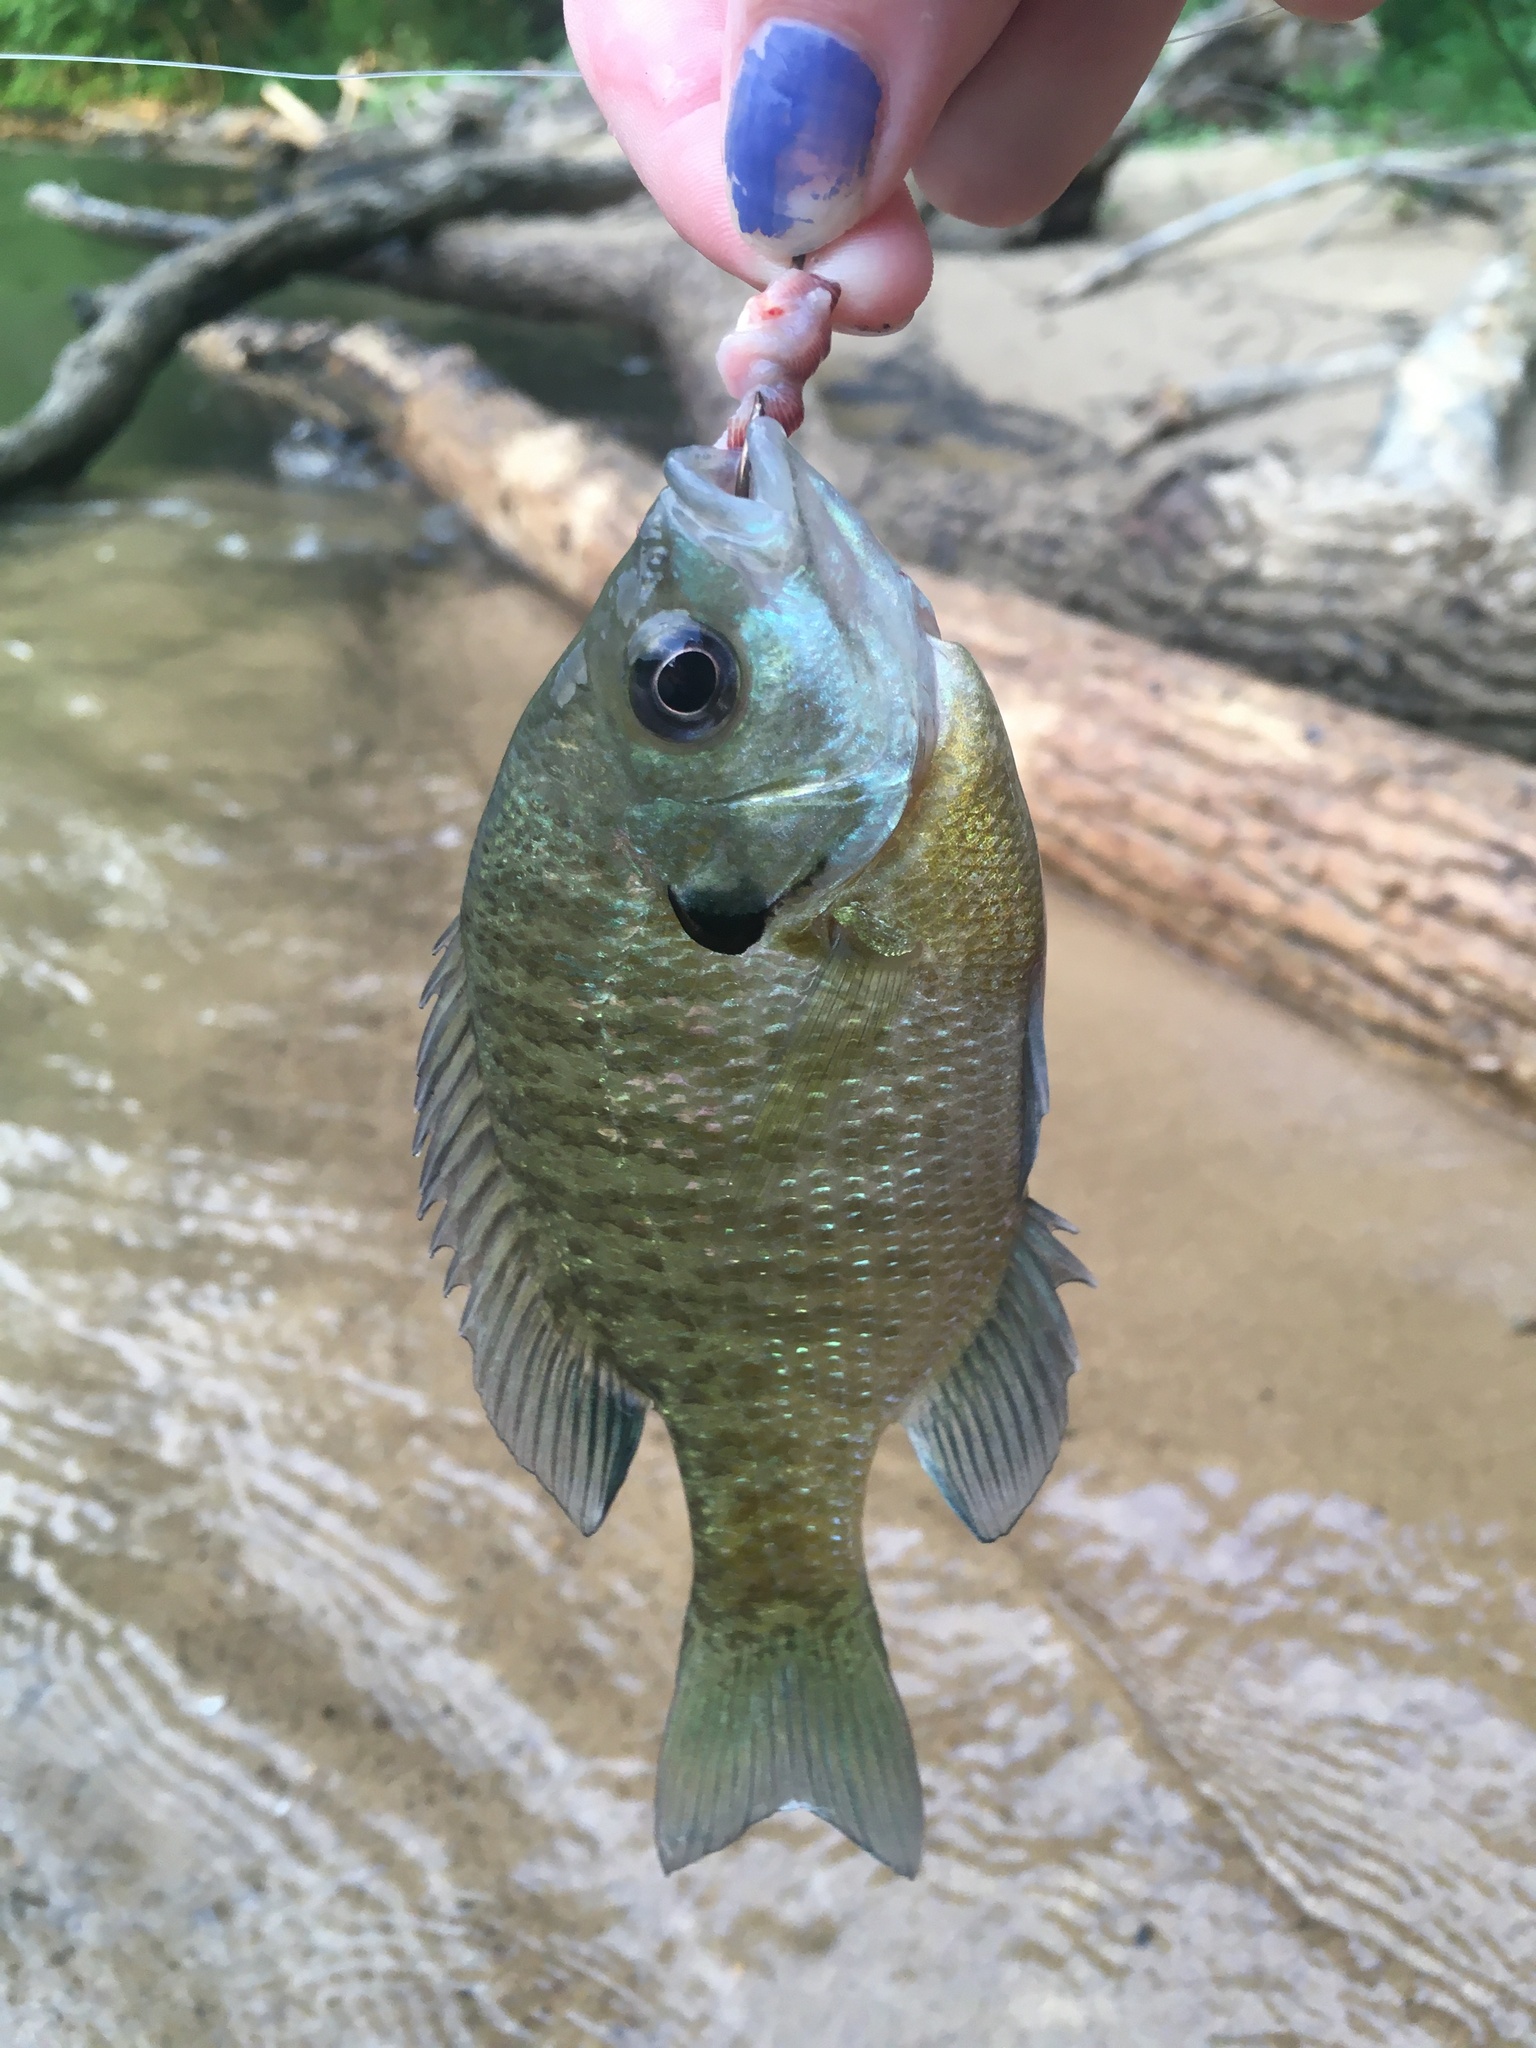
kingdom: Animalia
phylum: Chordata
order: Perciformes
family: Centrarchidae
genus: Lepomis
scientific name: Lepomis macrochirus
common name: Bluegill
